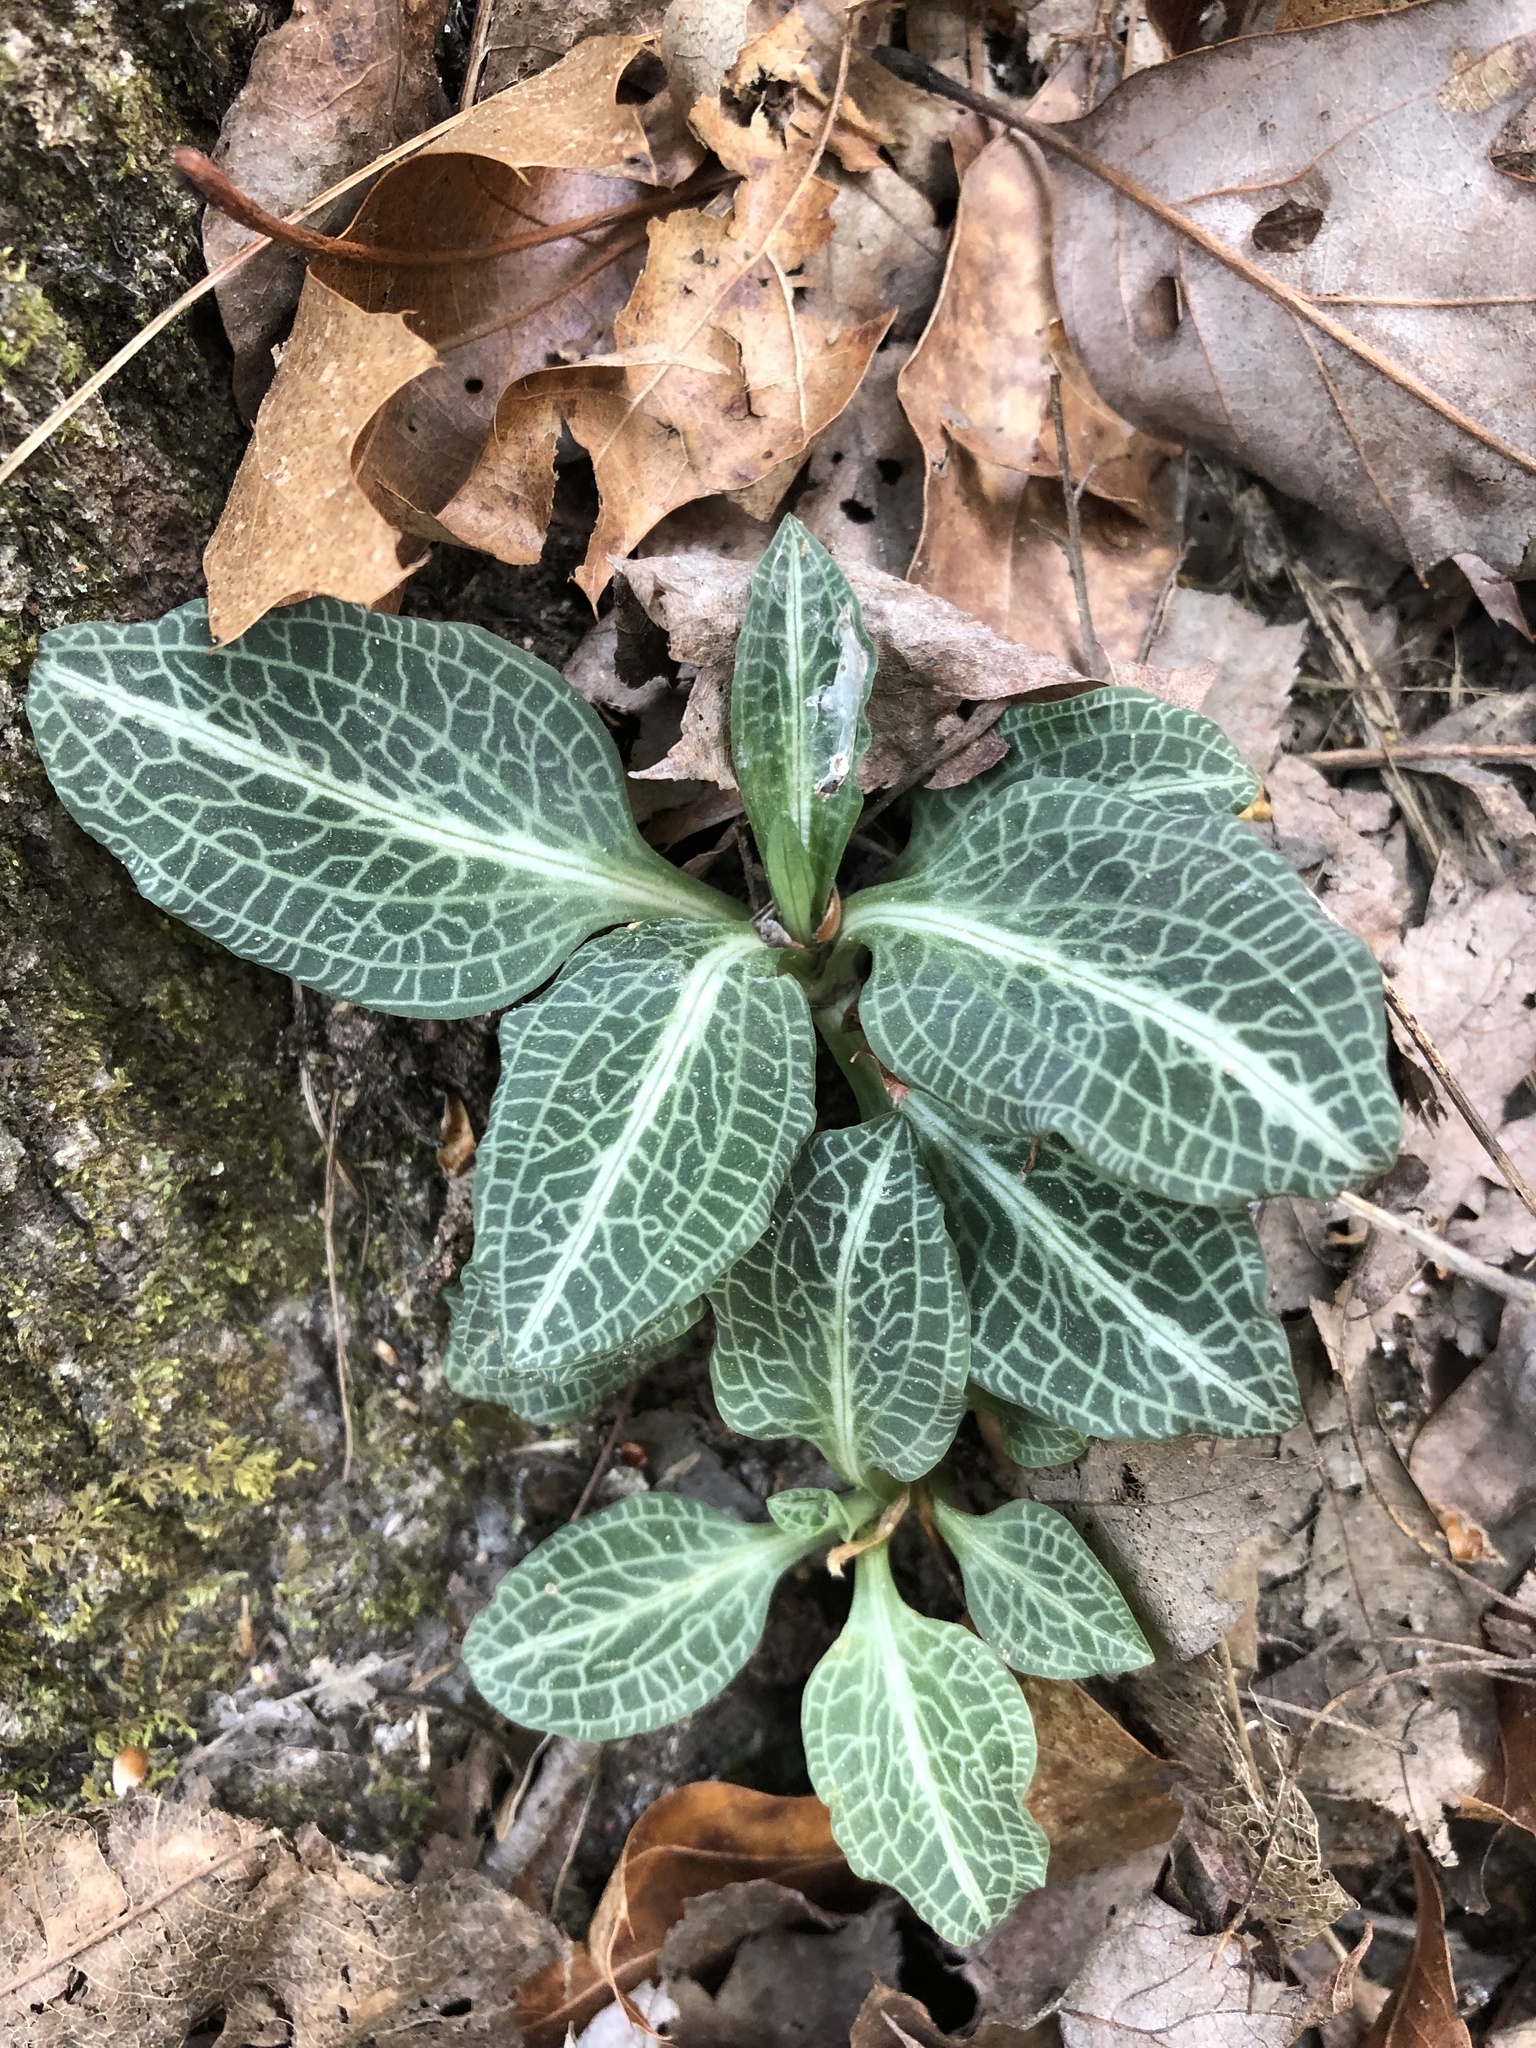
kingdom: Plantae
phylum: Tracheophyta
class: Liliopsida
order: Asparagales
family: Orchidaceae
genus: Goodyera
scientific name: Goodyera pubescens
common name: Downy rattlesnake-plantain
